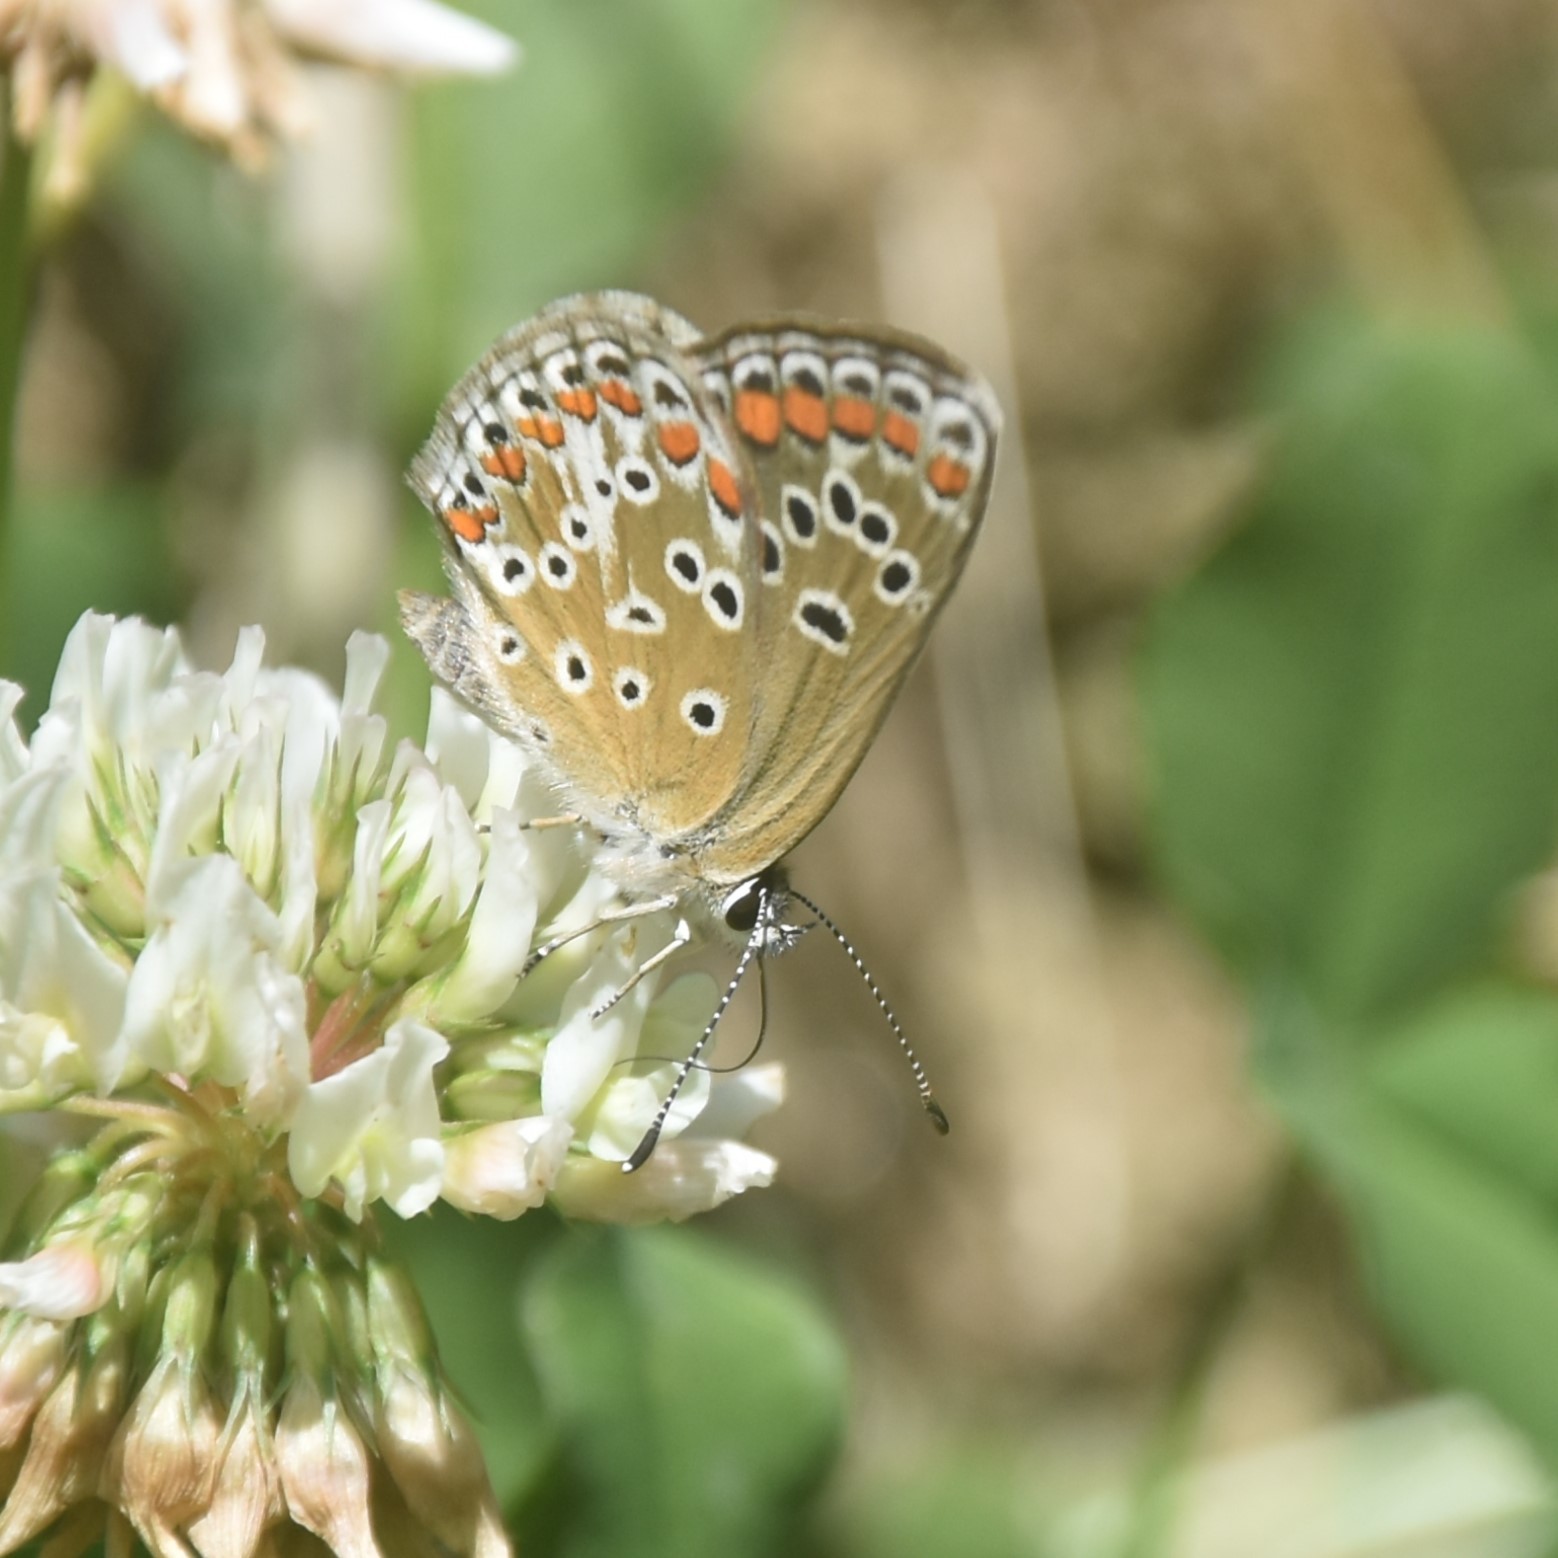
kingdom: Animalia
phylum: Arthropoda
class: Insecta
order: Lepidoptera
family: Lycaenidae
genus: Aricia
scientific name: Aricia agestis
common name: Brown argus
